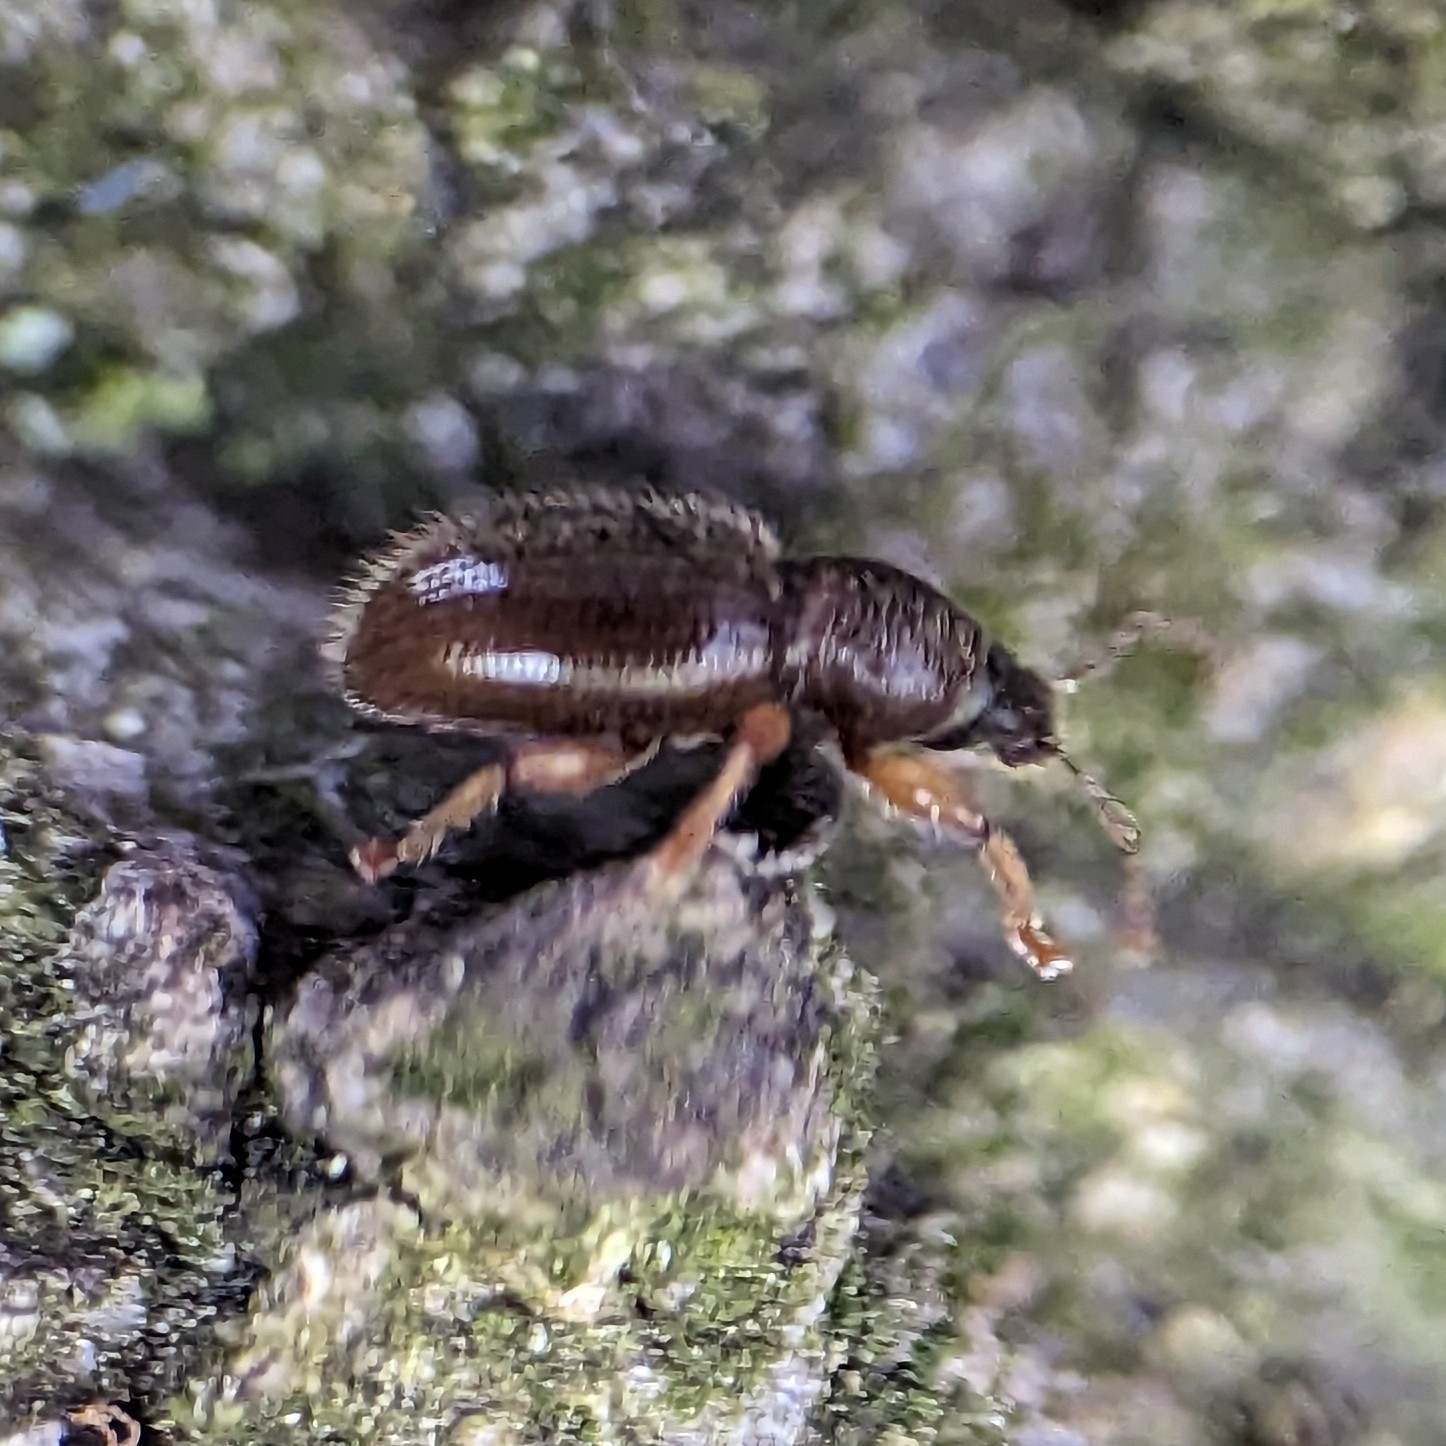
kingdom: Animalia
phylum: Arthropoda
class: Insecta
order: Coleoptera
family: Curculionidae
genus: Exomias
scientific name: Exomias pellucidus
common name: Hairy spider weevil
